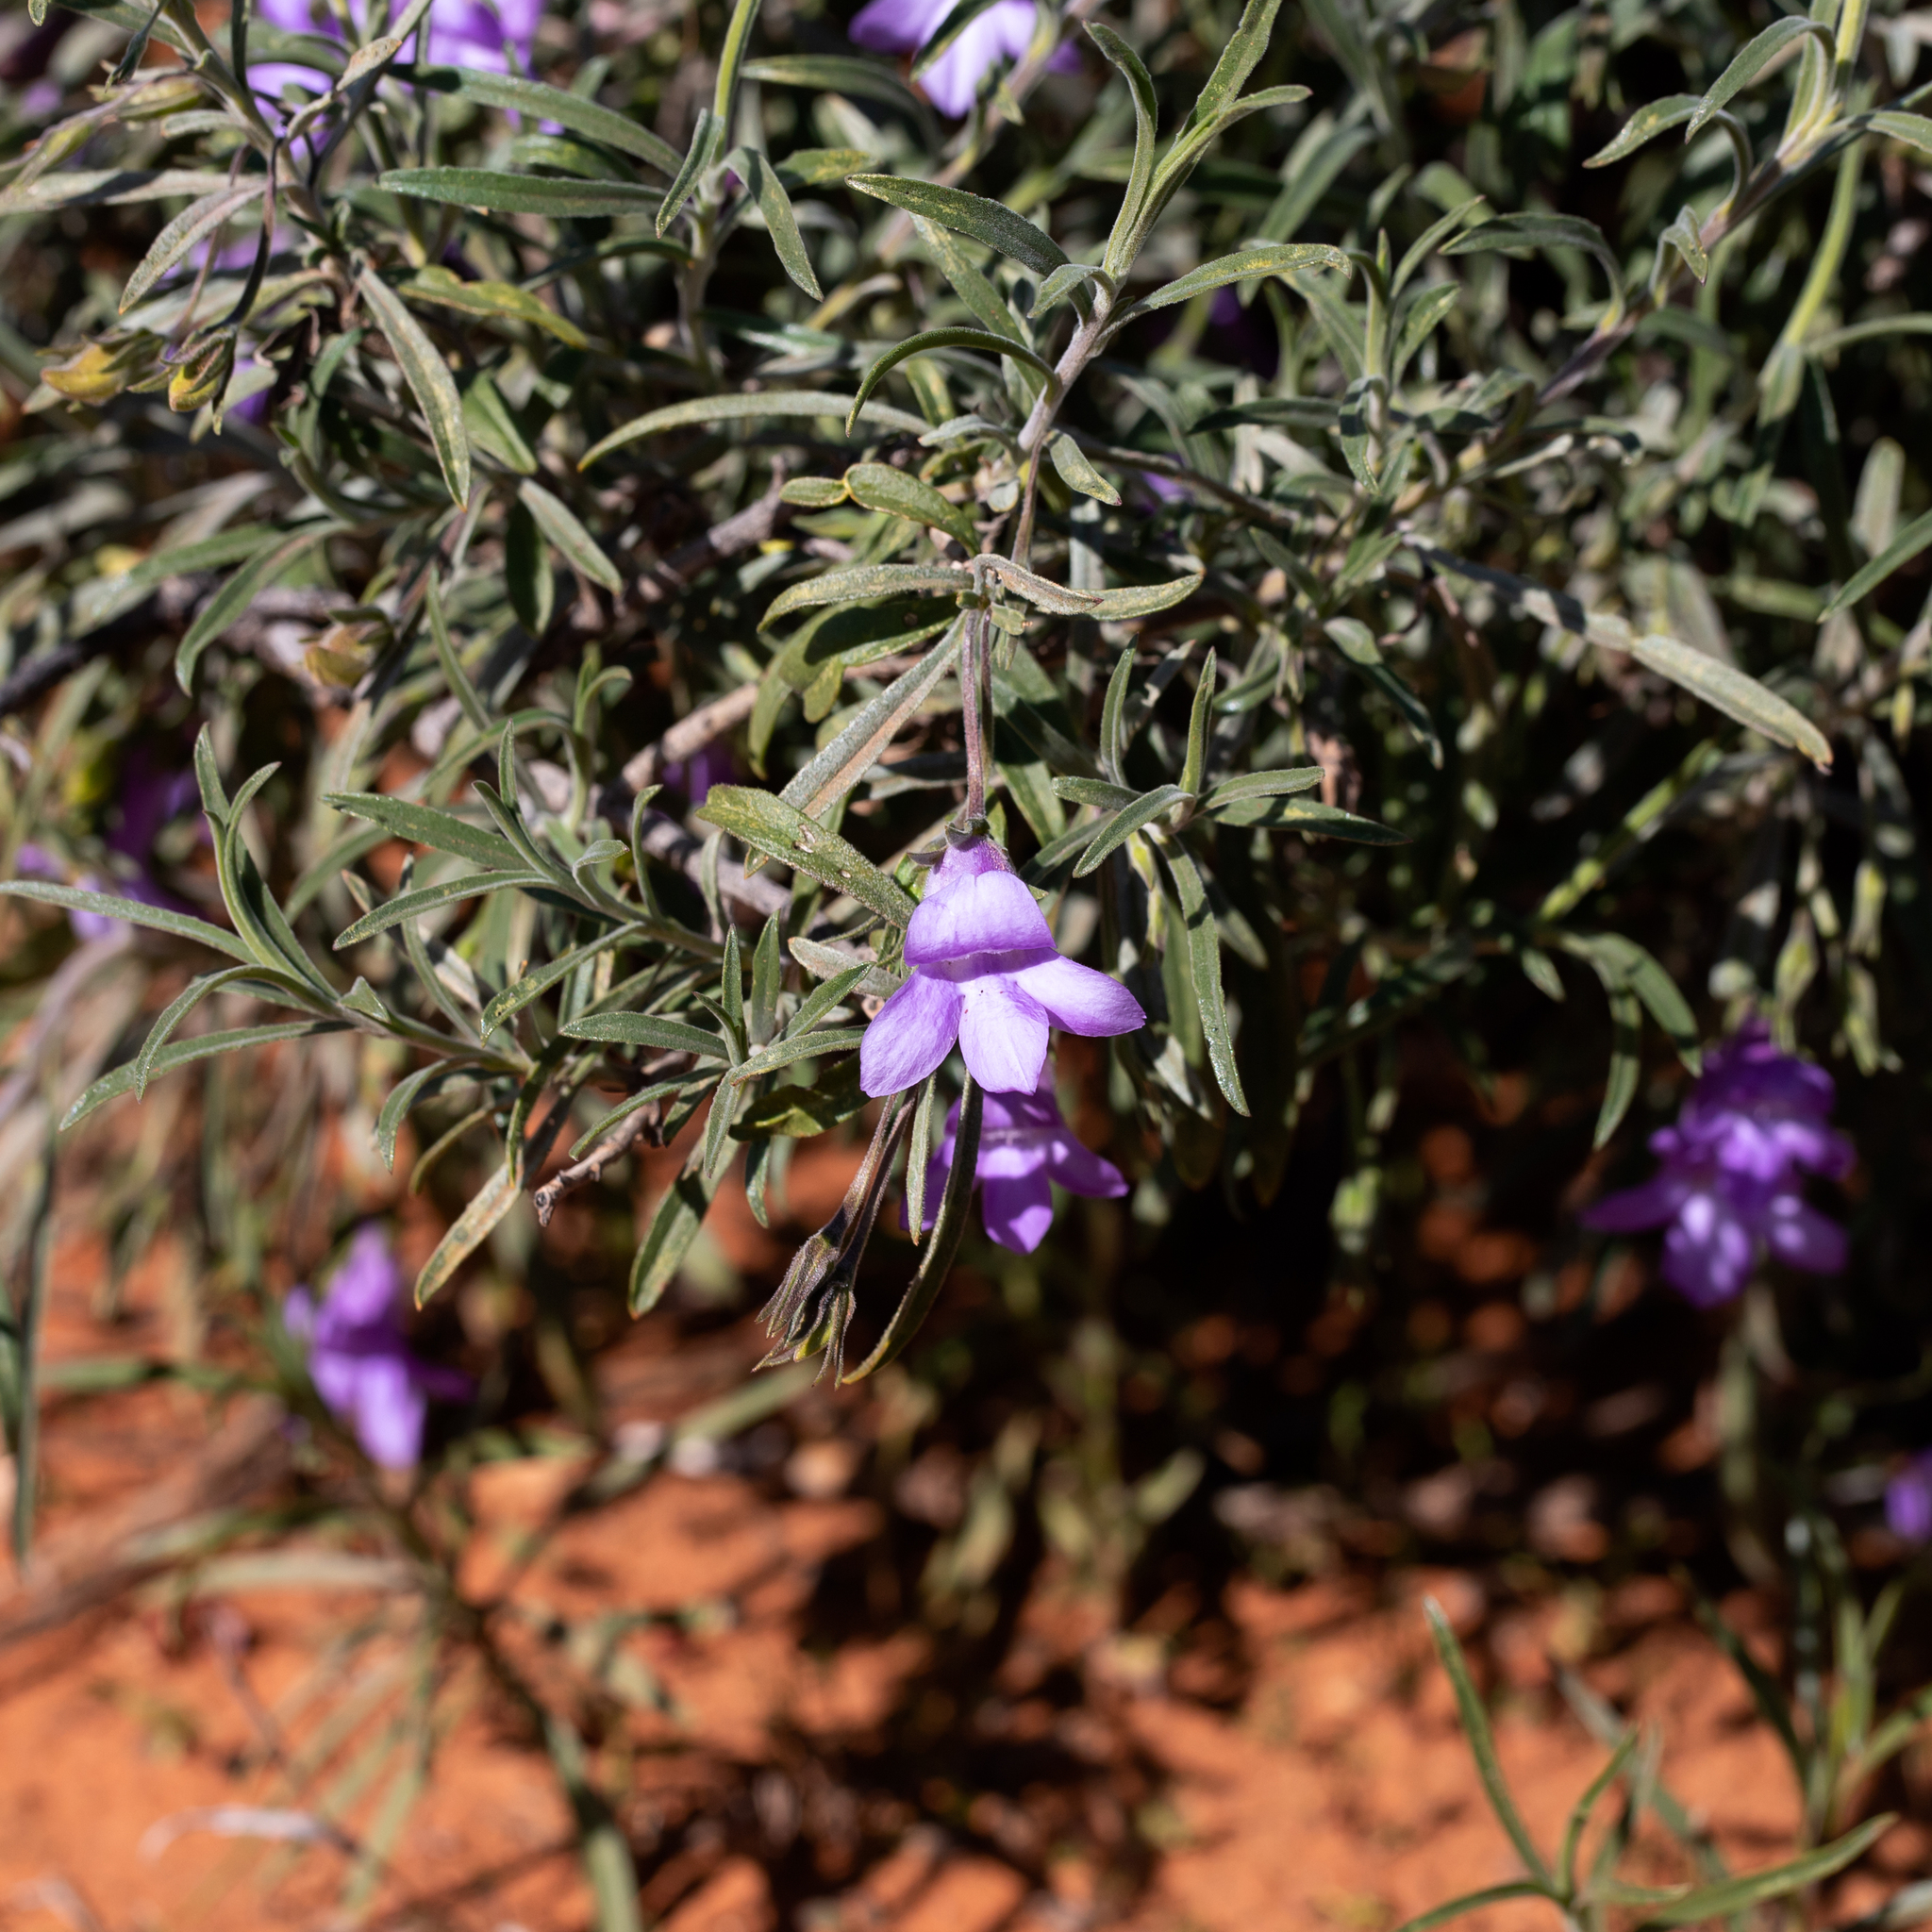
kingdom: Plantae
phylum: Tracheophyta
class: Magnoliopsida
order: Lamiales
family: Scrophulariaceae
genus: Eremophila
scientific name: Eremophila gilesii
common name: Desert fuchsia
